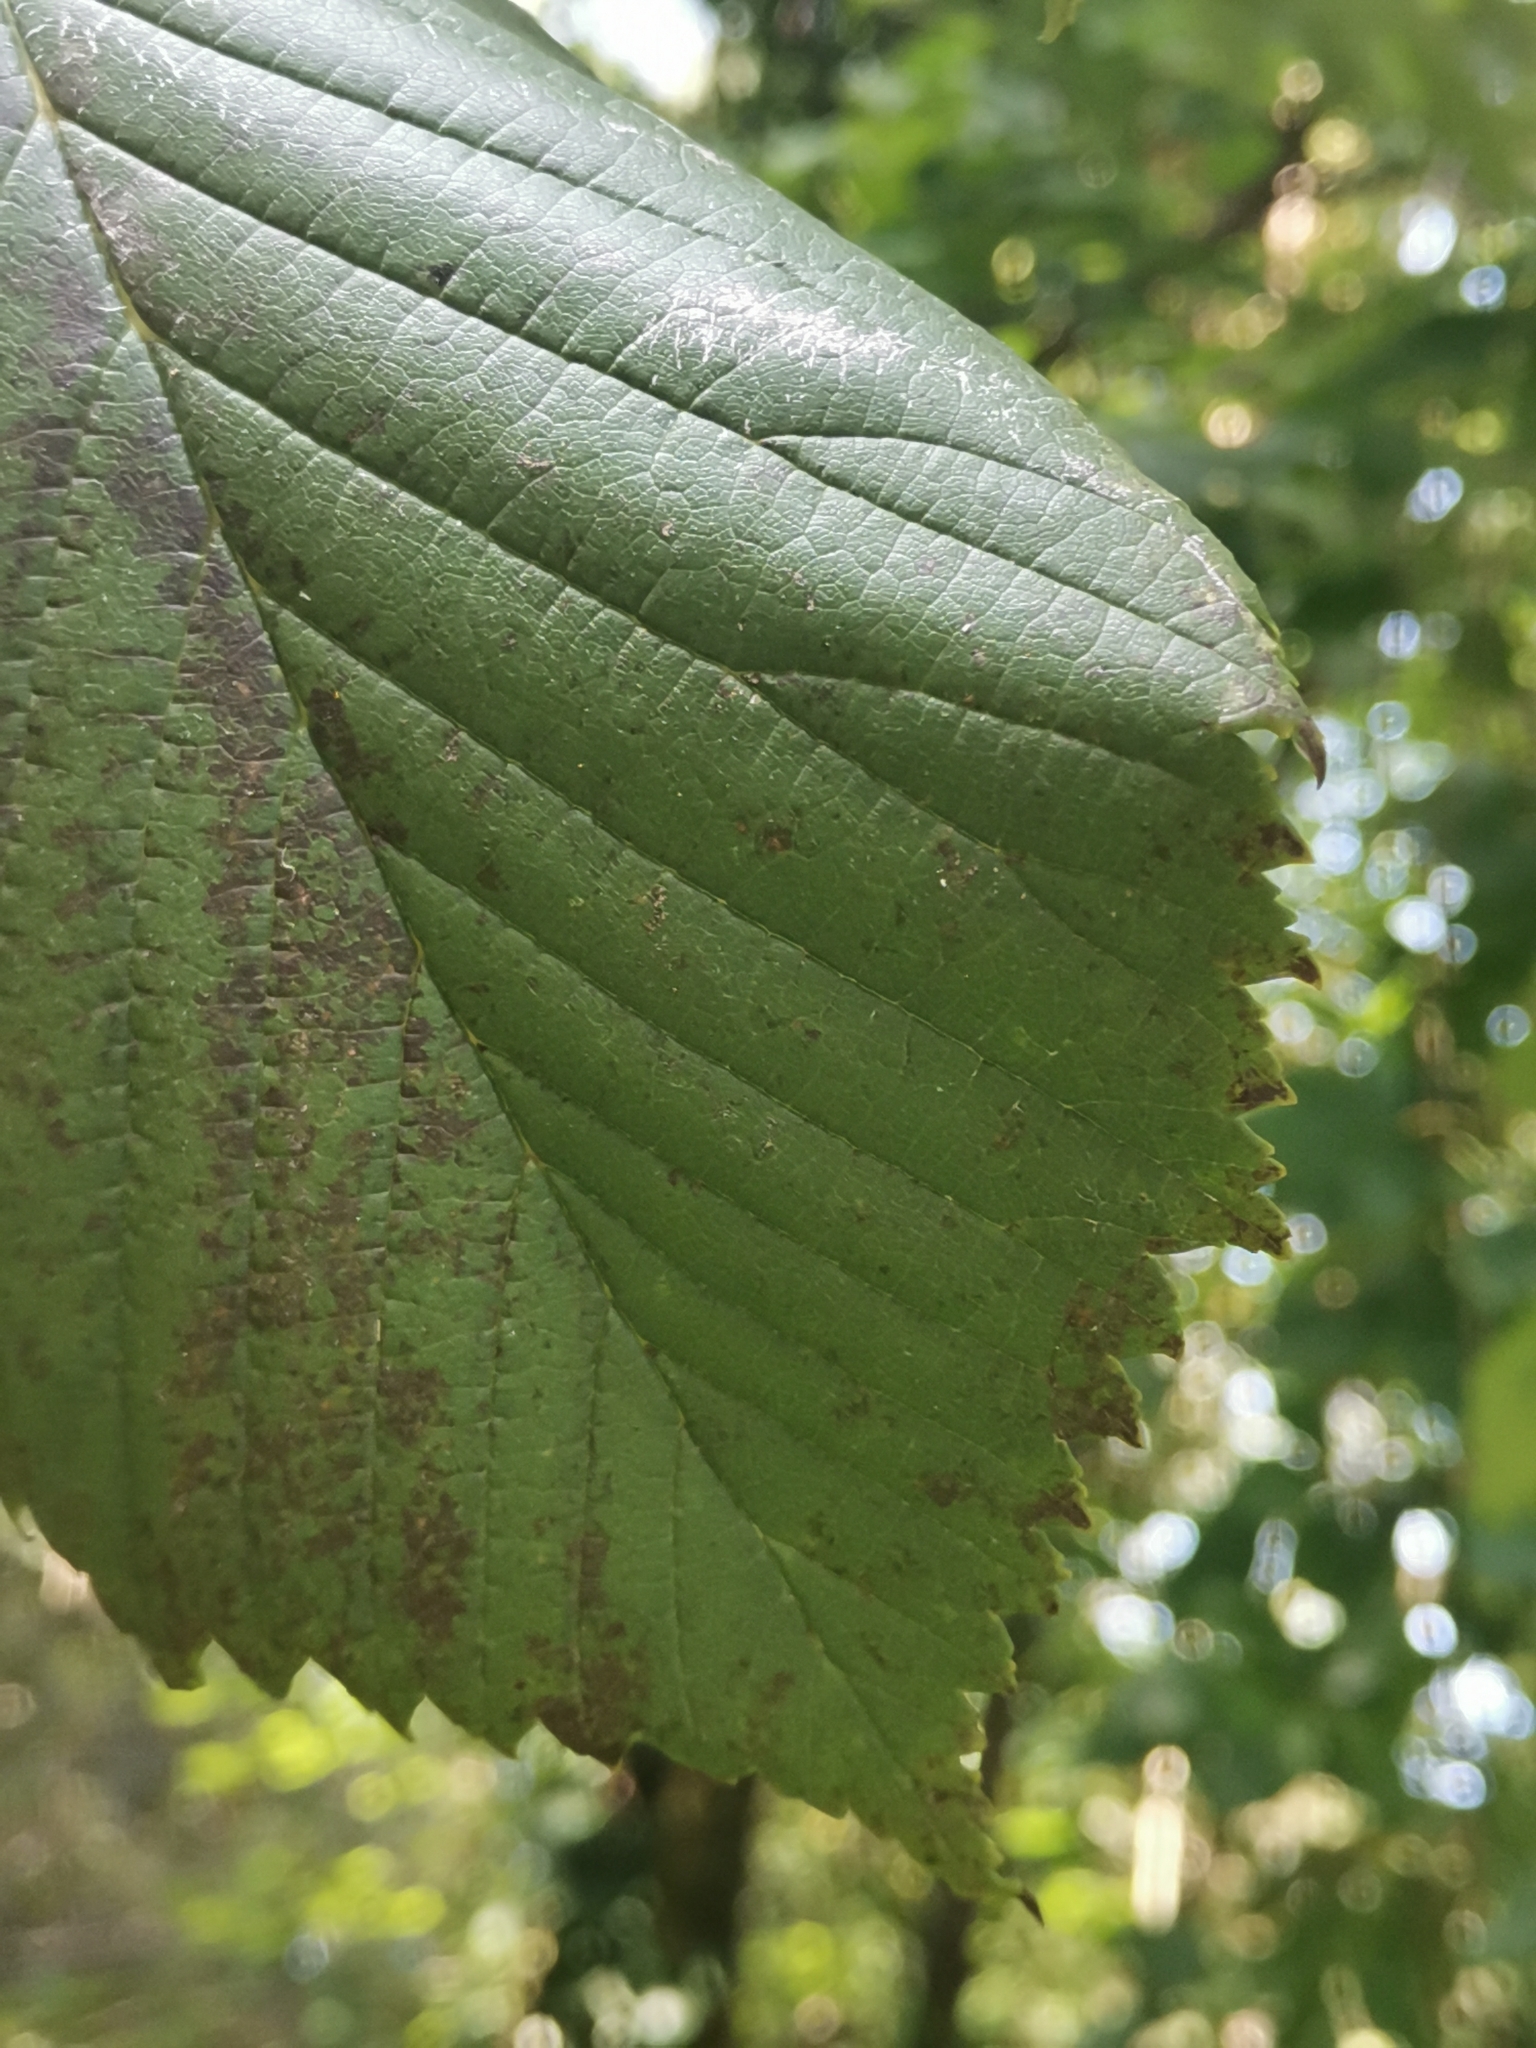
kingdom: Plantae
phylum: Tracheophyta
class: Magnoliopsida
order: Rosales
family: Ulmaceae
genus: Ulmus
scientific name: Ulmus glabra
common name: Wych elm
